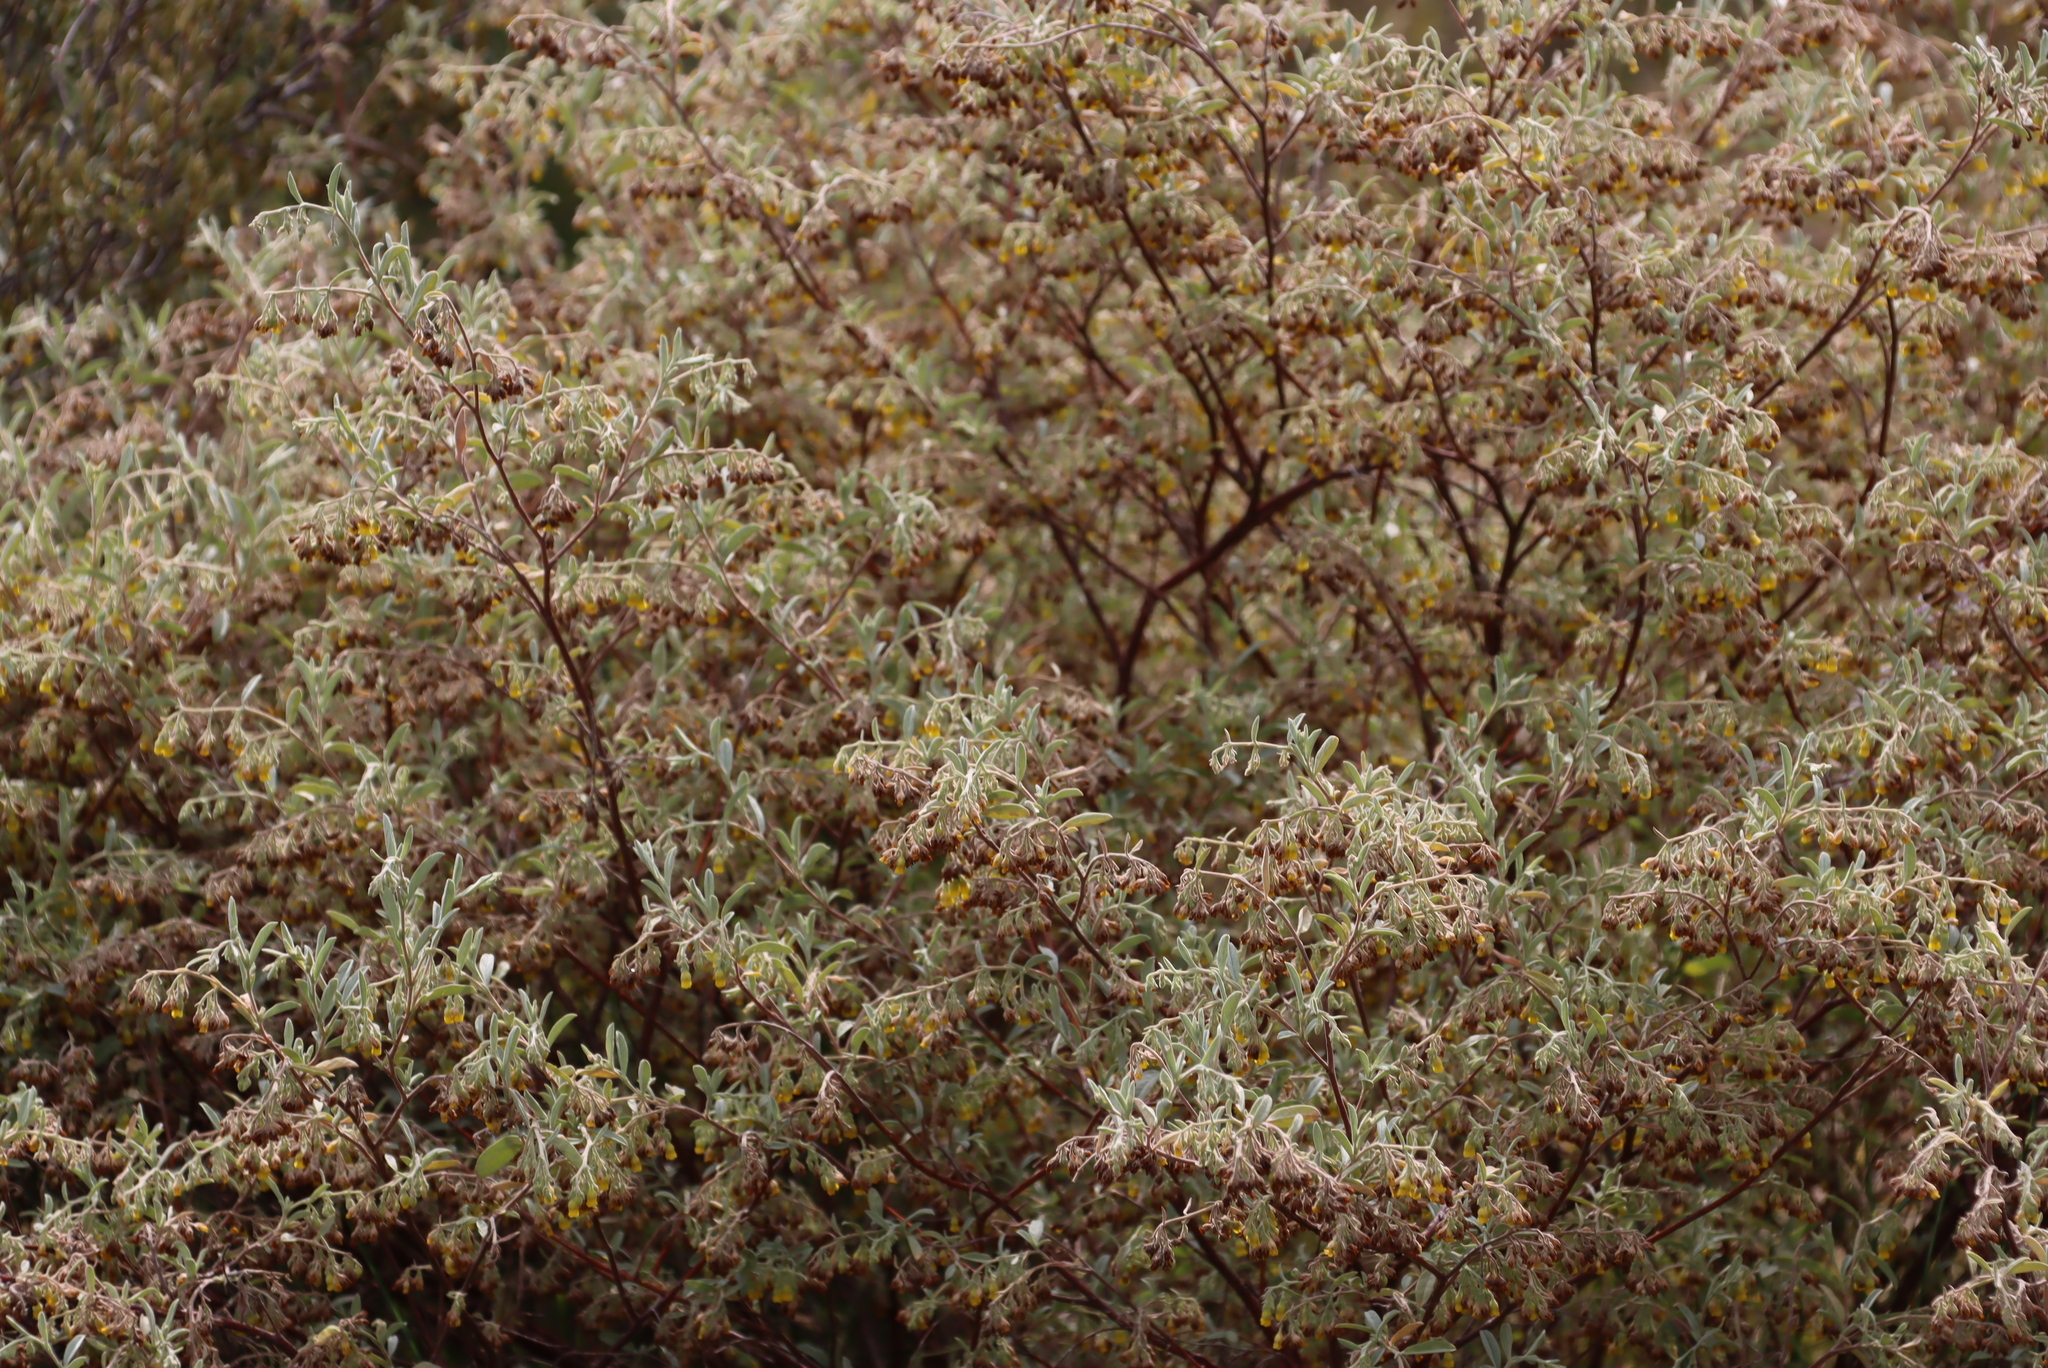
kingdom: Plantae
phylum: Tracheophyta
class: Magnoliopsida
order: Malvales
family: Malvaceae
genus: Hermannia
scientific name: Hermannia holosericea
